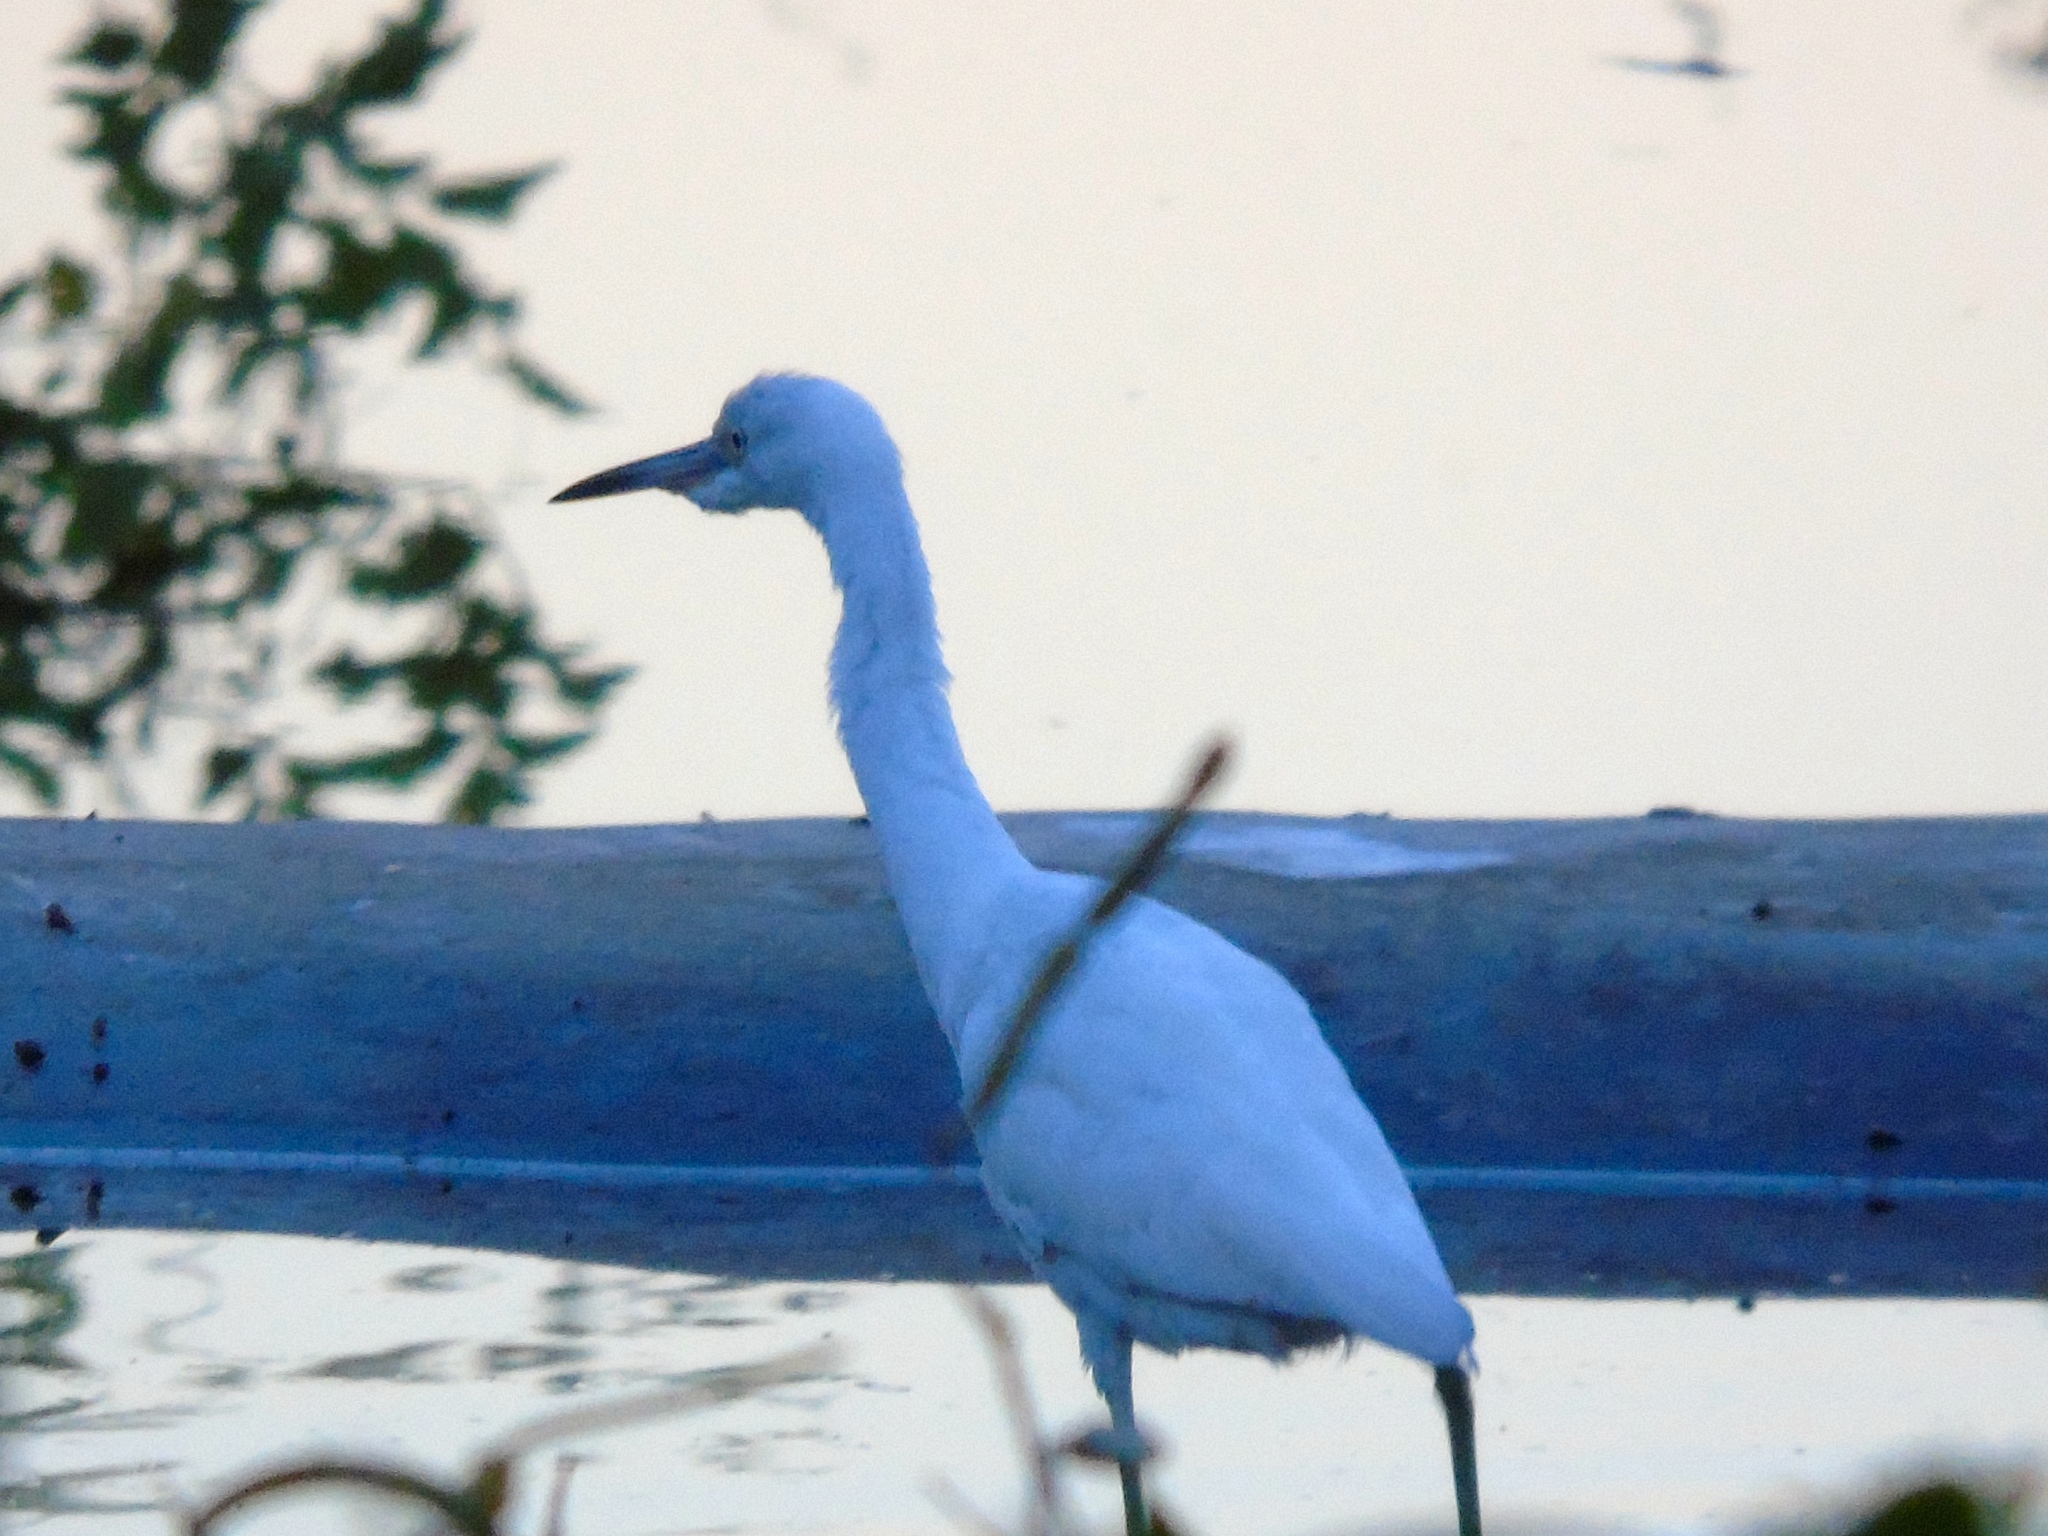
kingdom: Animalia
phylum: Chordata
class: Aves
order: Pelecaniformes
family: Ardeidae
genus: Egretta
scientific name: Egretta caerulea
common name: Little blue heron
